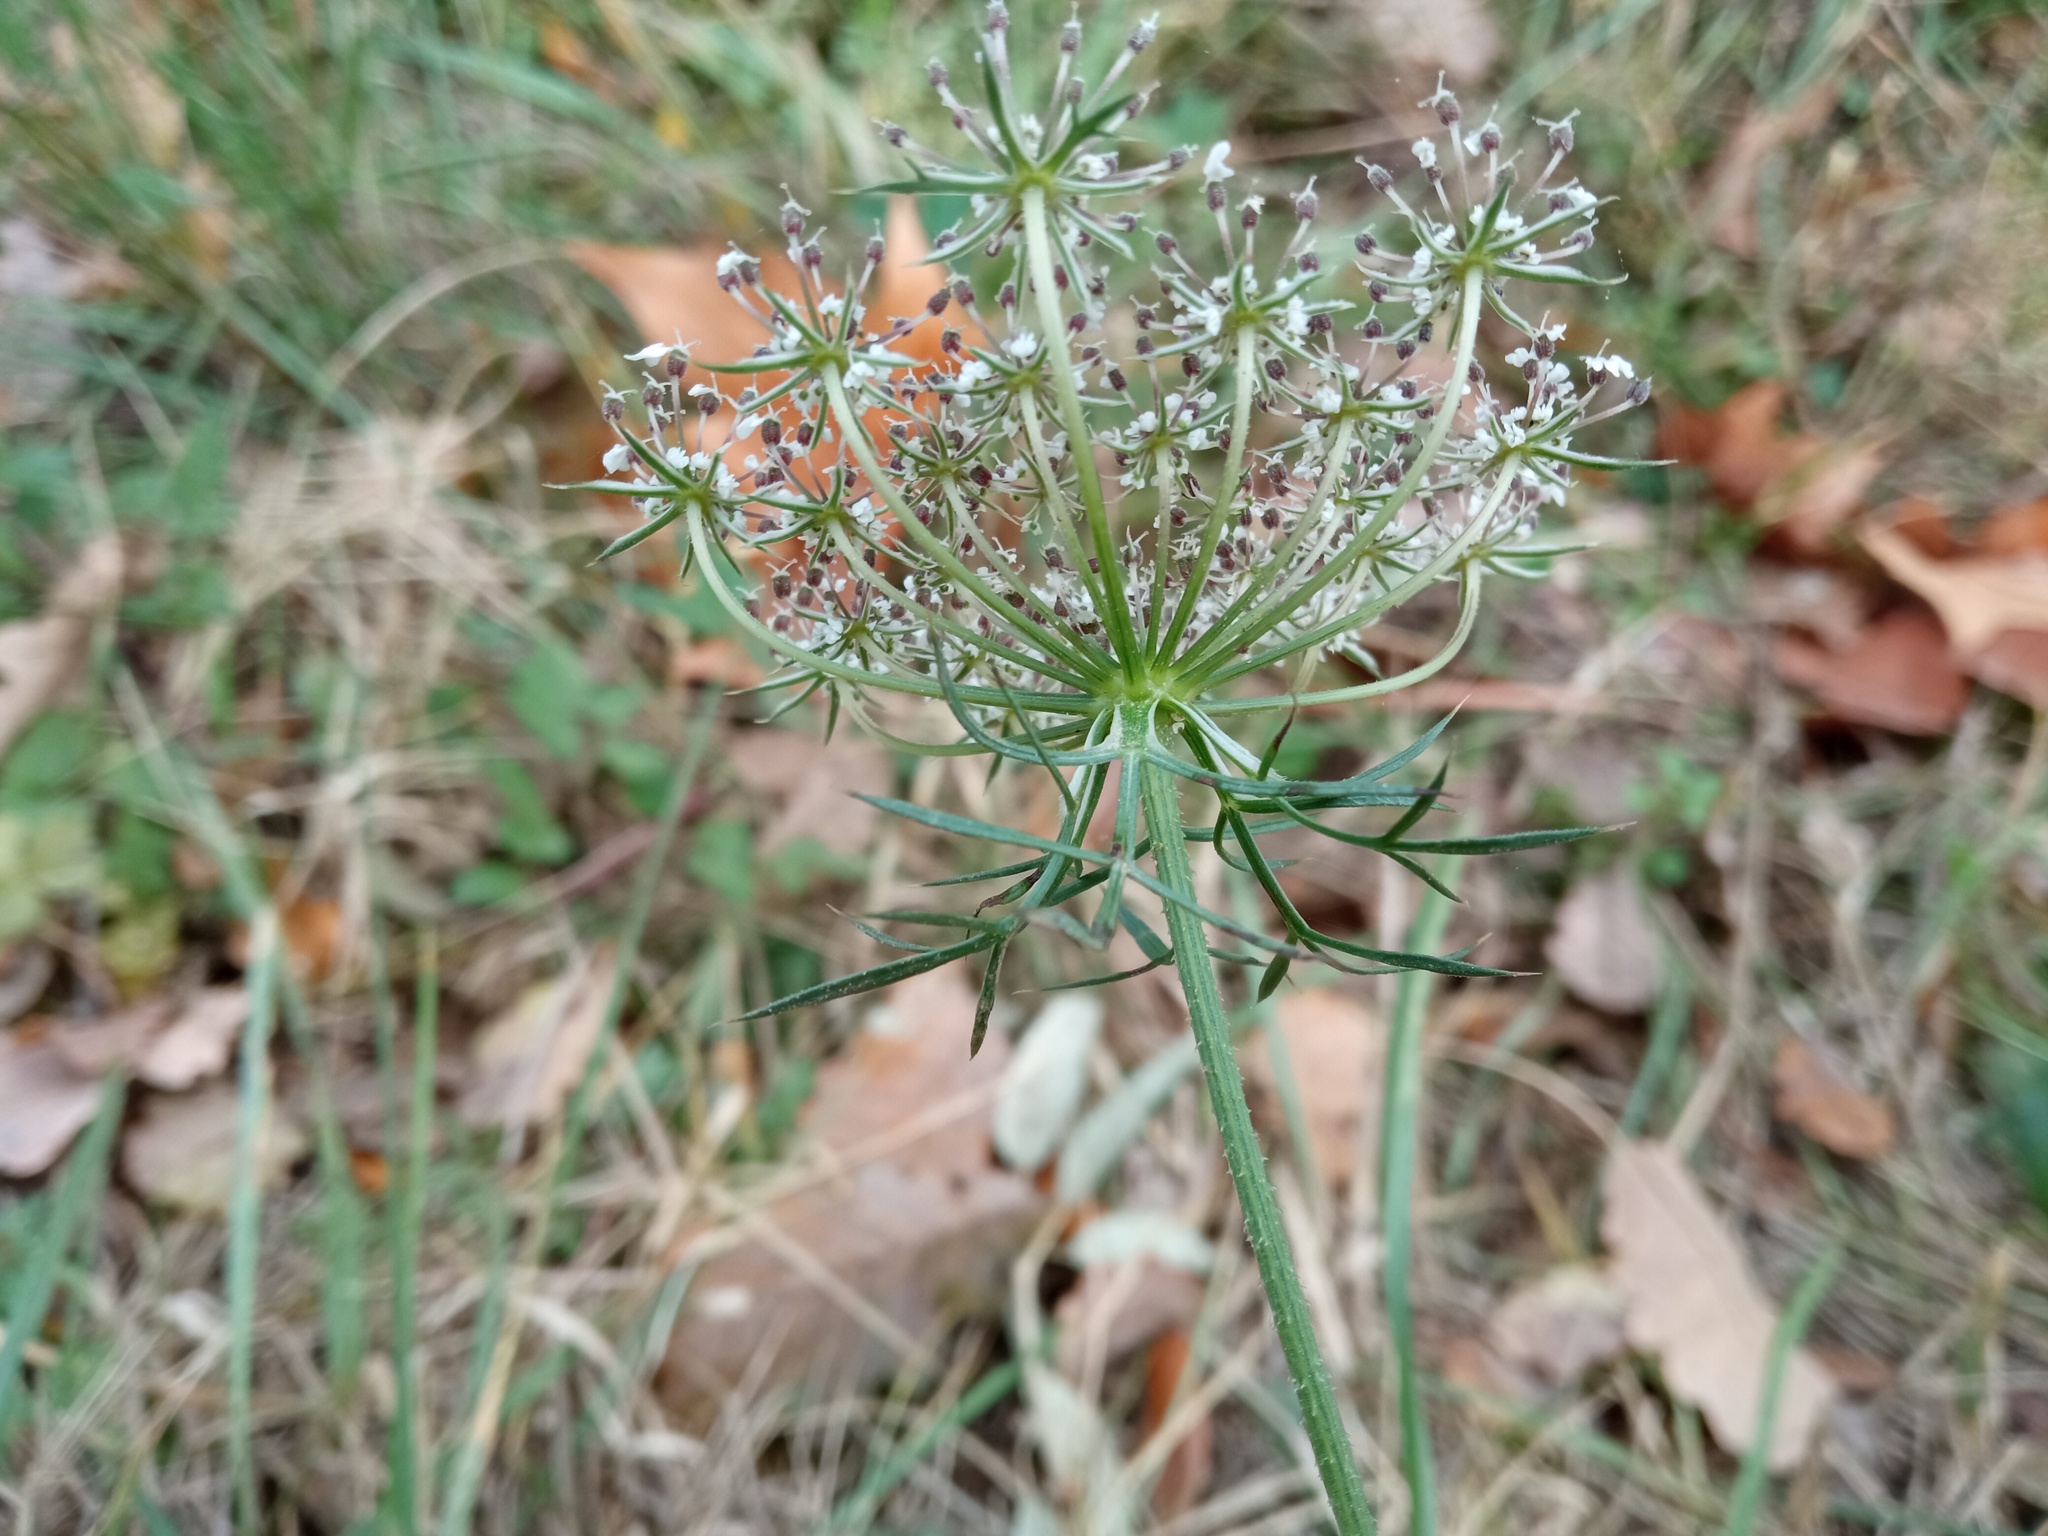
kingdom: Plantae
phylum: Tracheophyta
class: Magnoliopsida
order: Apiales
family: Apiaceae
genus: Daucus
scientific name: Daucus carota
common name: Wild carrot
